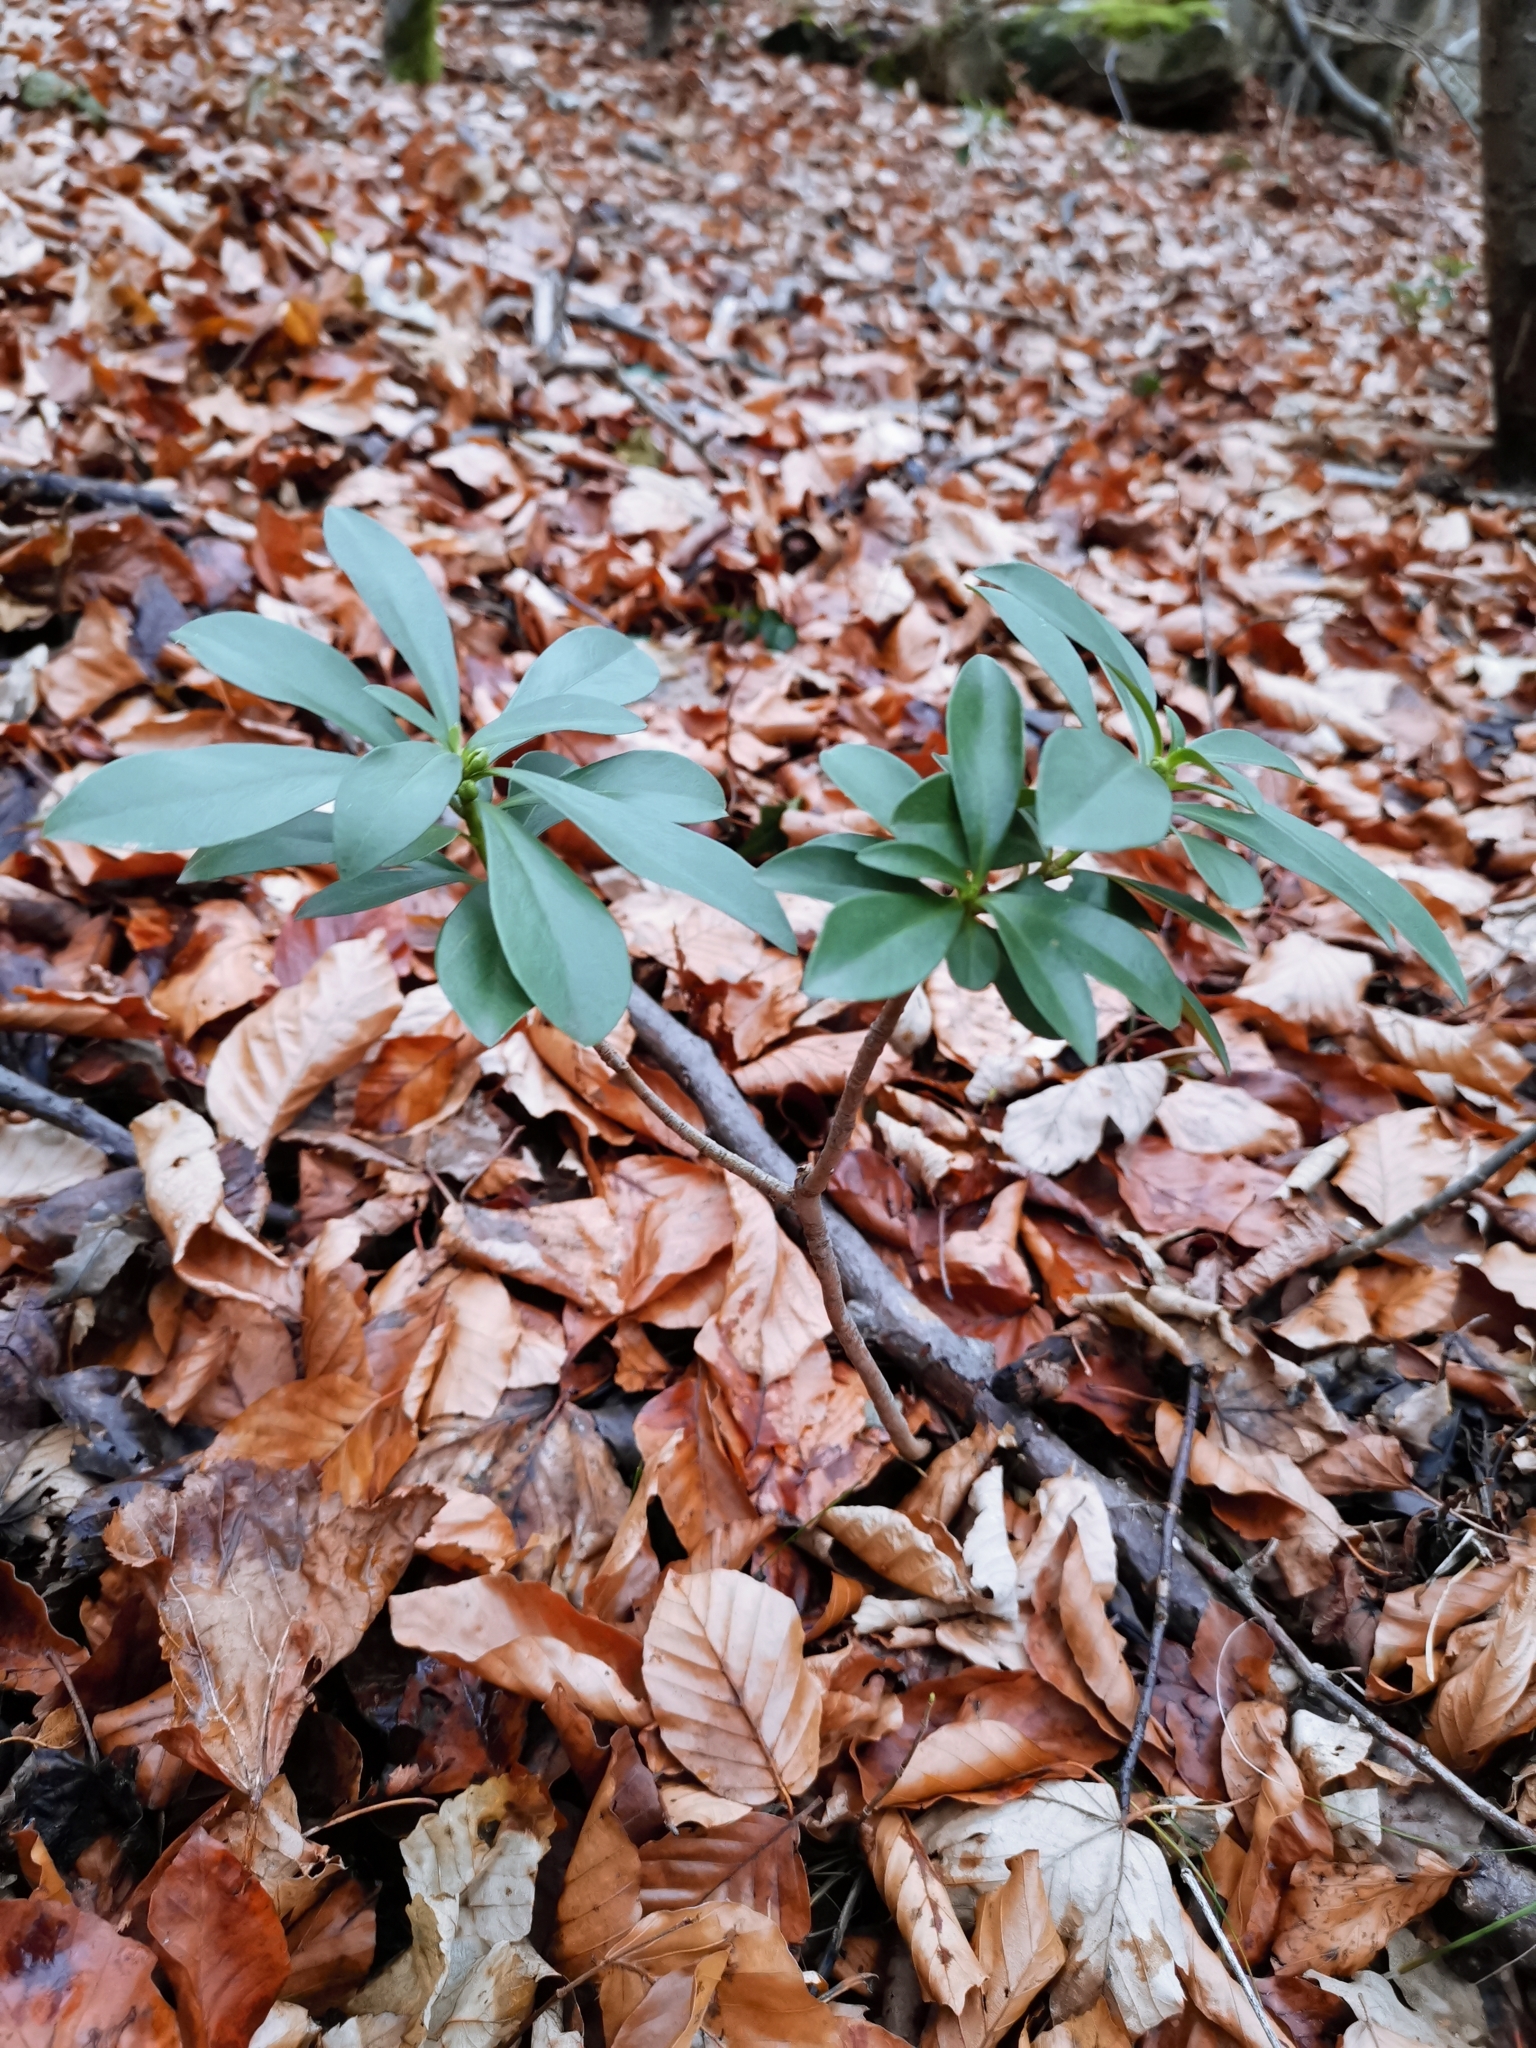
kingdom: Plantae
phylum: Tracheophyta
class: Magnoliopsida
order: Malvales
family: Thymelaeaceae
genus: Daphne
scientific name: Daphne laureola
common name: Spurge-laurel
